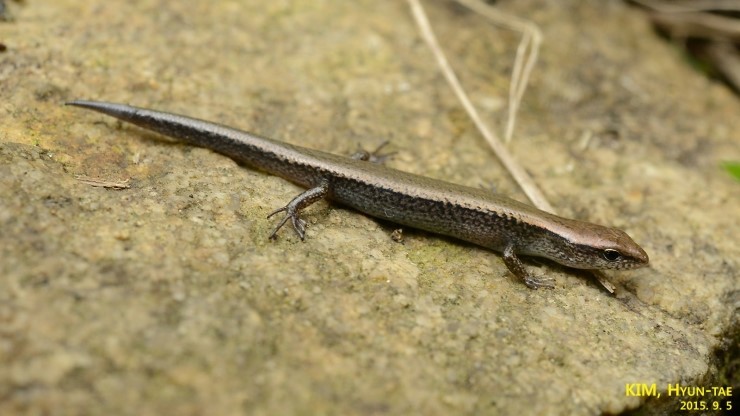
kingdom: Animalia
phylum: Chordata
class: Squamata
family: Scincidae
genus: Scincella
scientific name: Scincella vandenburghi
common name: Tsushima smooth skink
